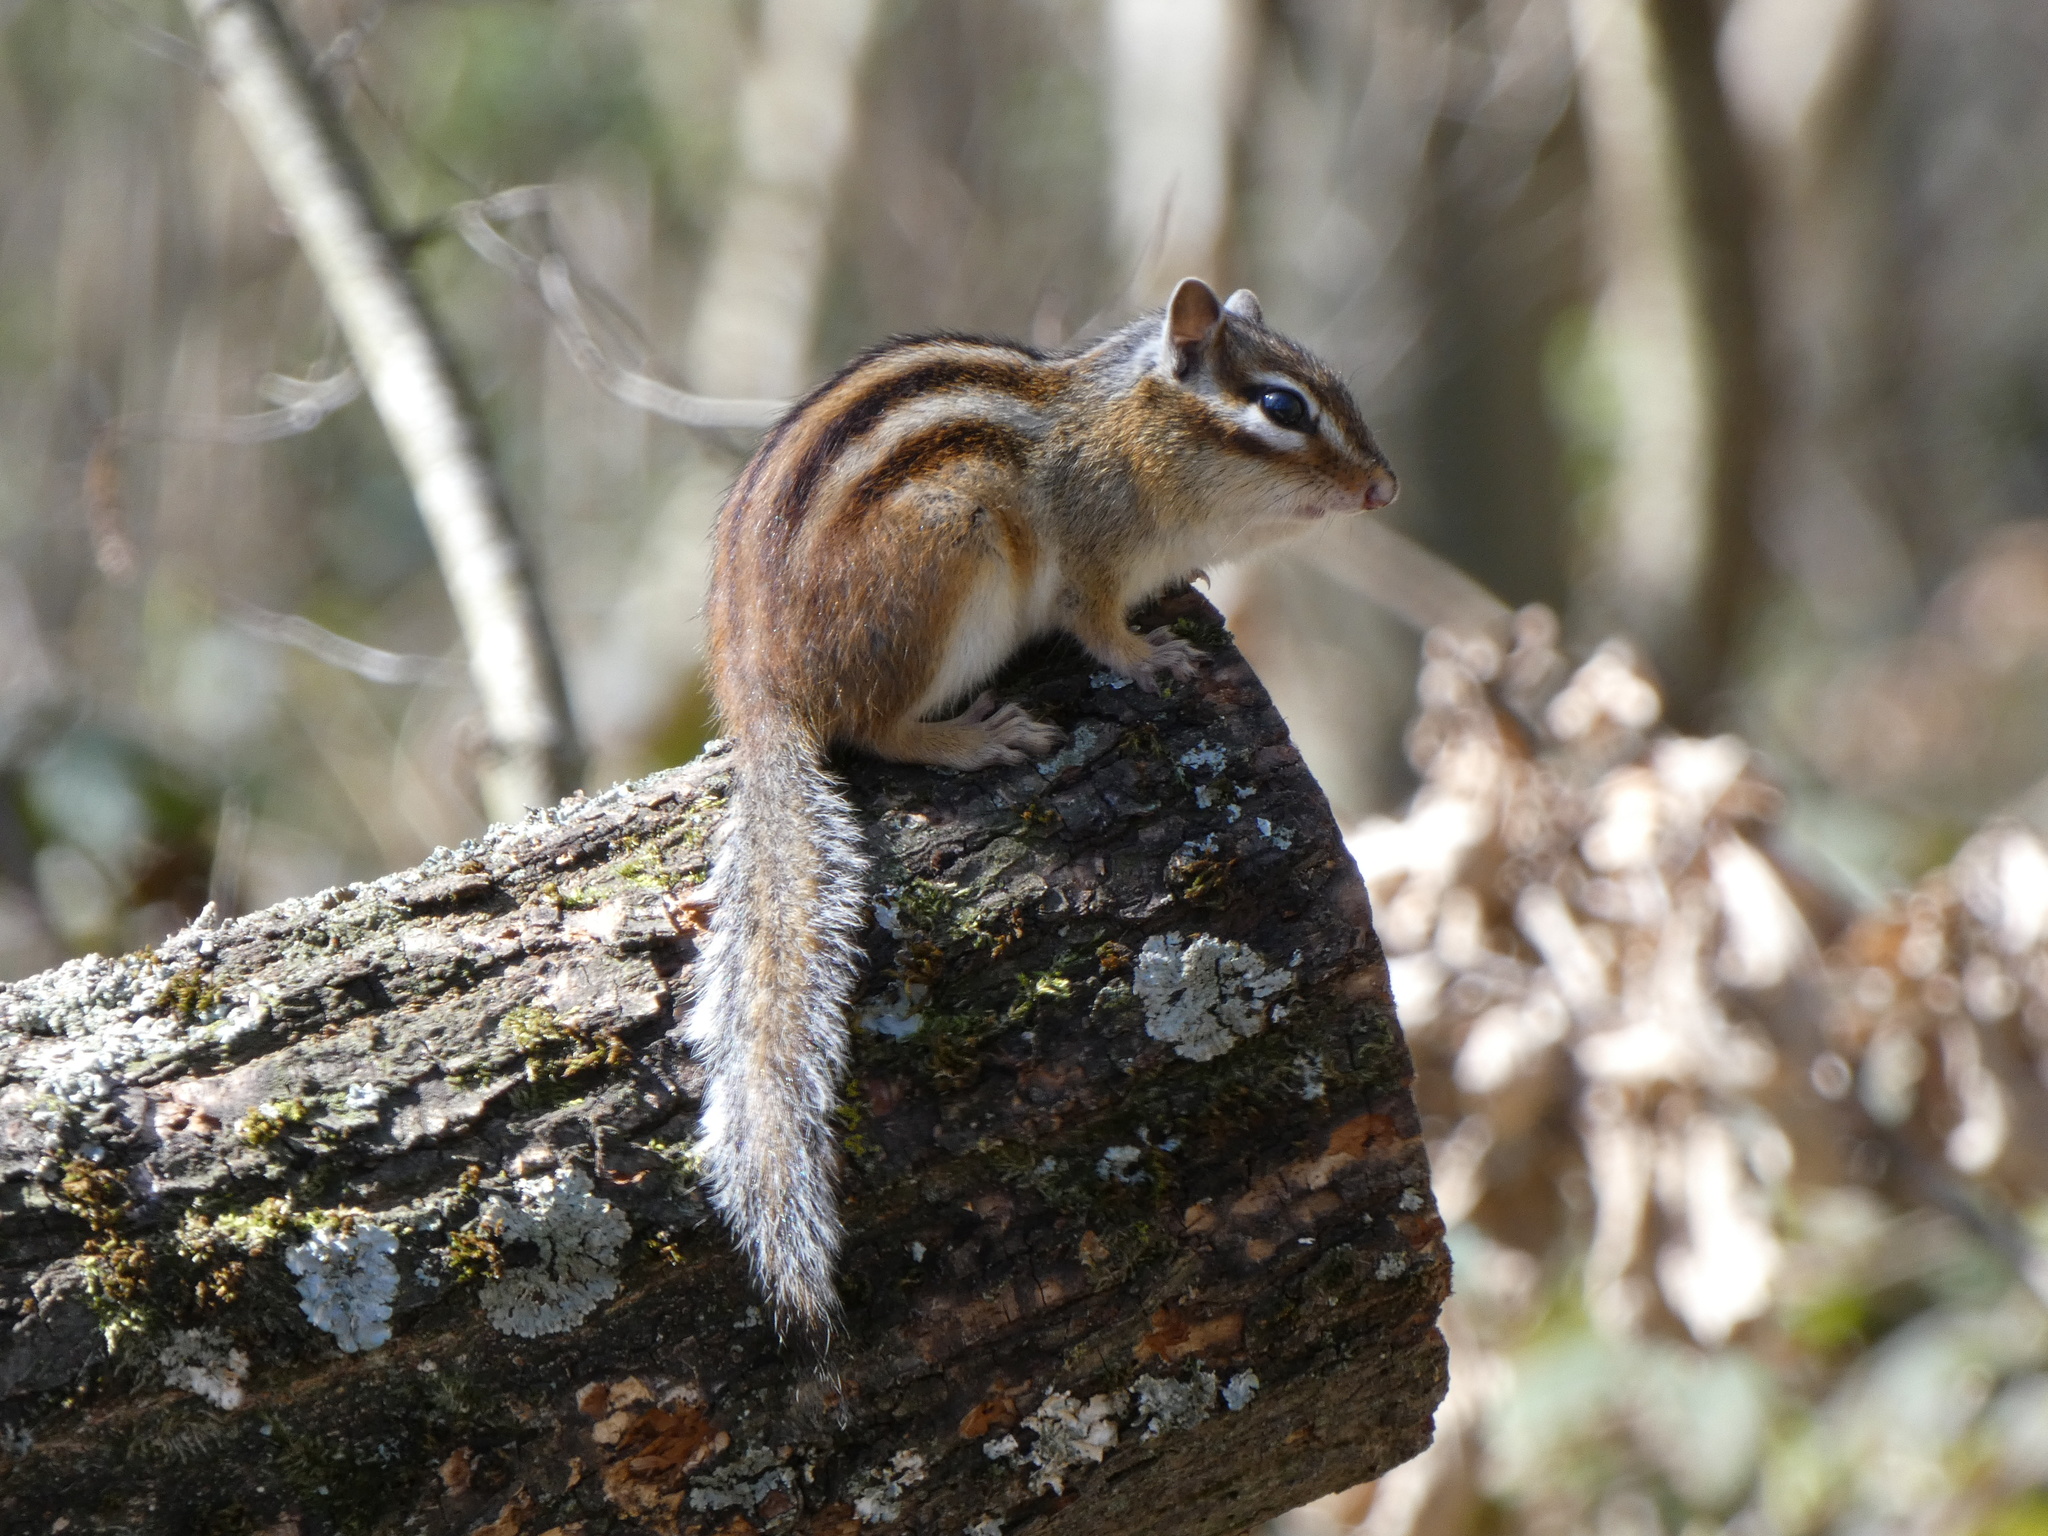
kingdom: Animalia
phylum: Chordata
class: Mammalia
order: Rodentia
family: Sciuridae
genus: Tamias
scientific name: Tamias sibiricus
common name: Siberian chipmunk
